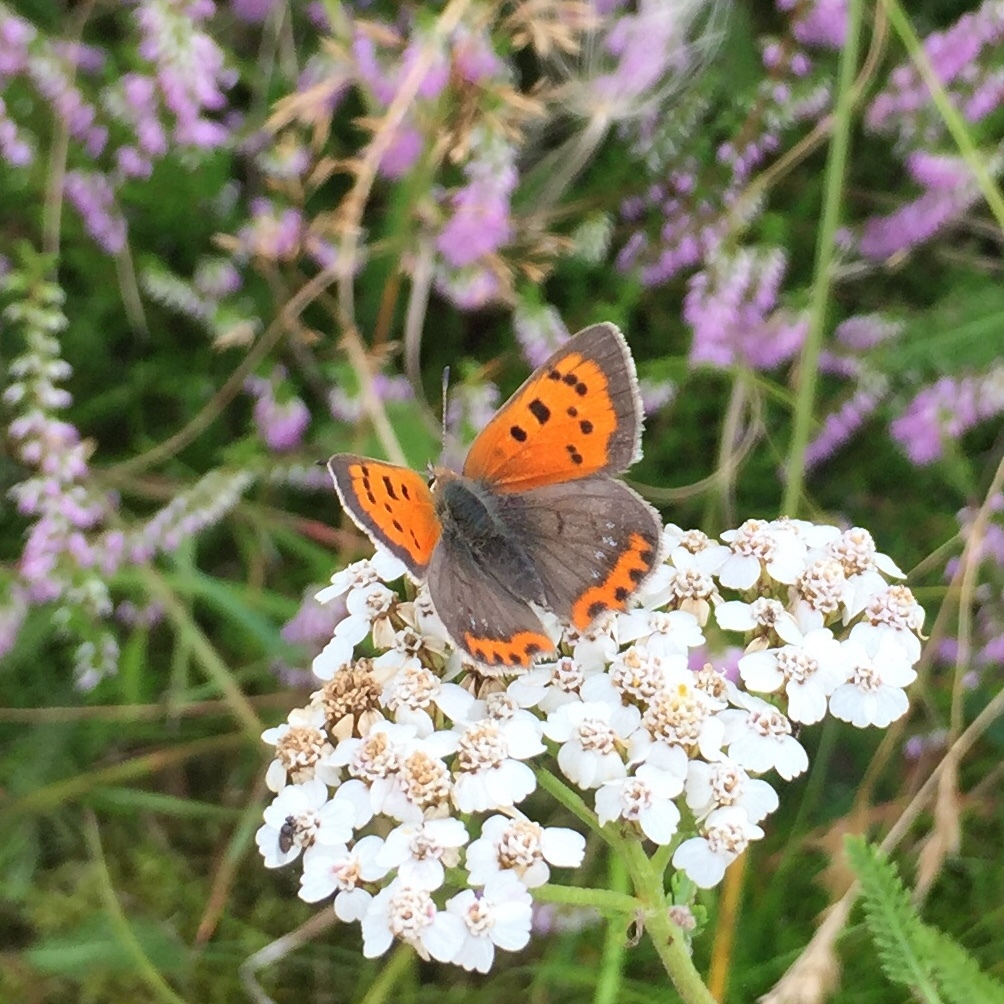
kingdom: Animalia
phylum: Arthropoda
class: Insecta
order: Lepidoptera
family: Lycaenidae
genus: Lycaena
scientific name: Lycaena phlaeas
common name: Small copper
